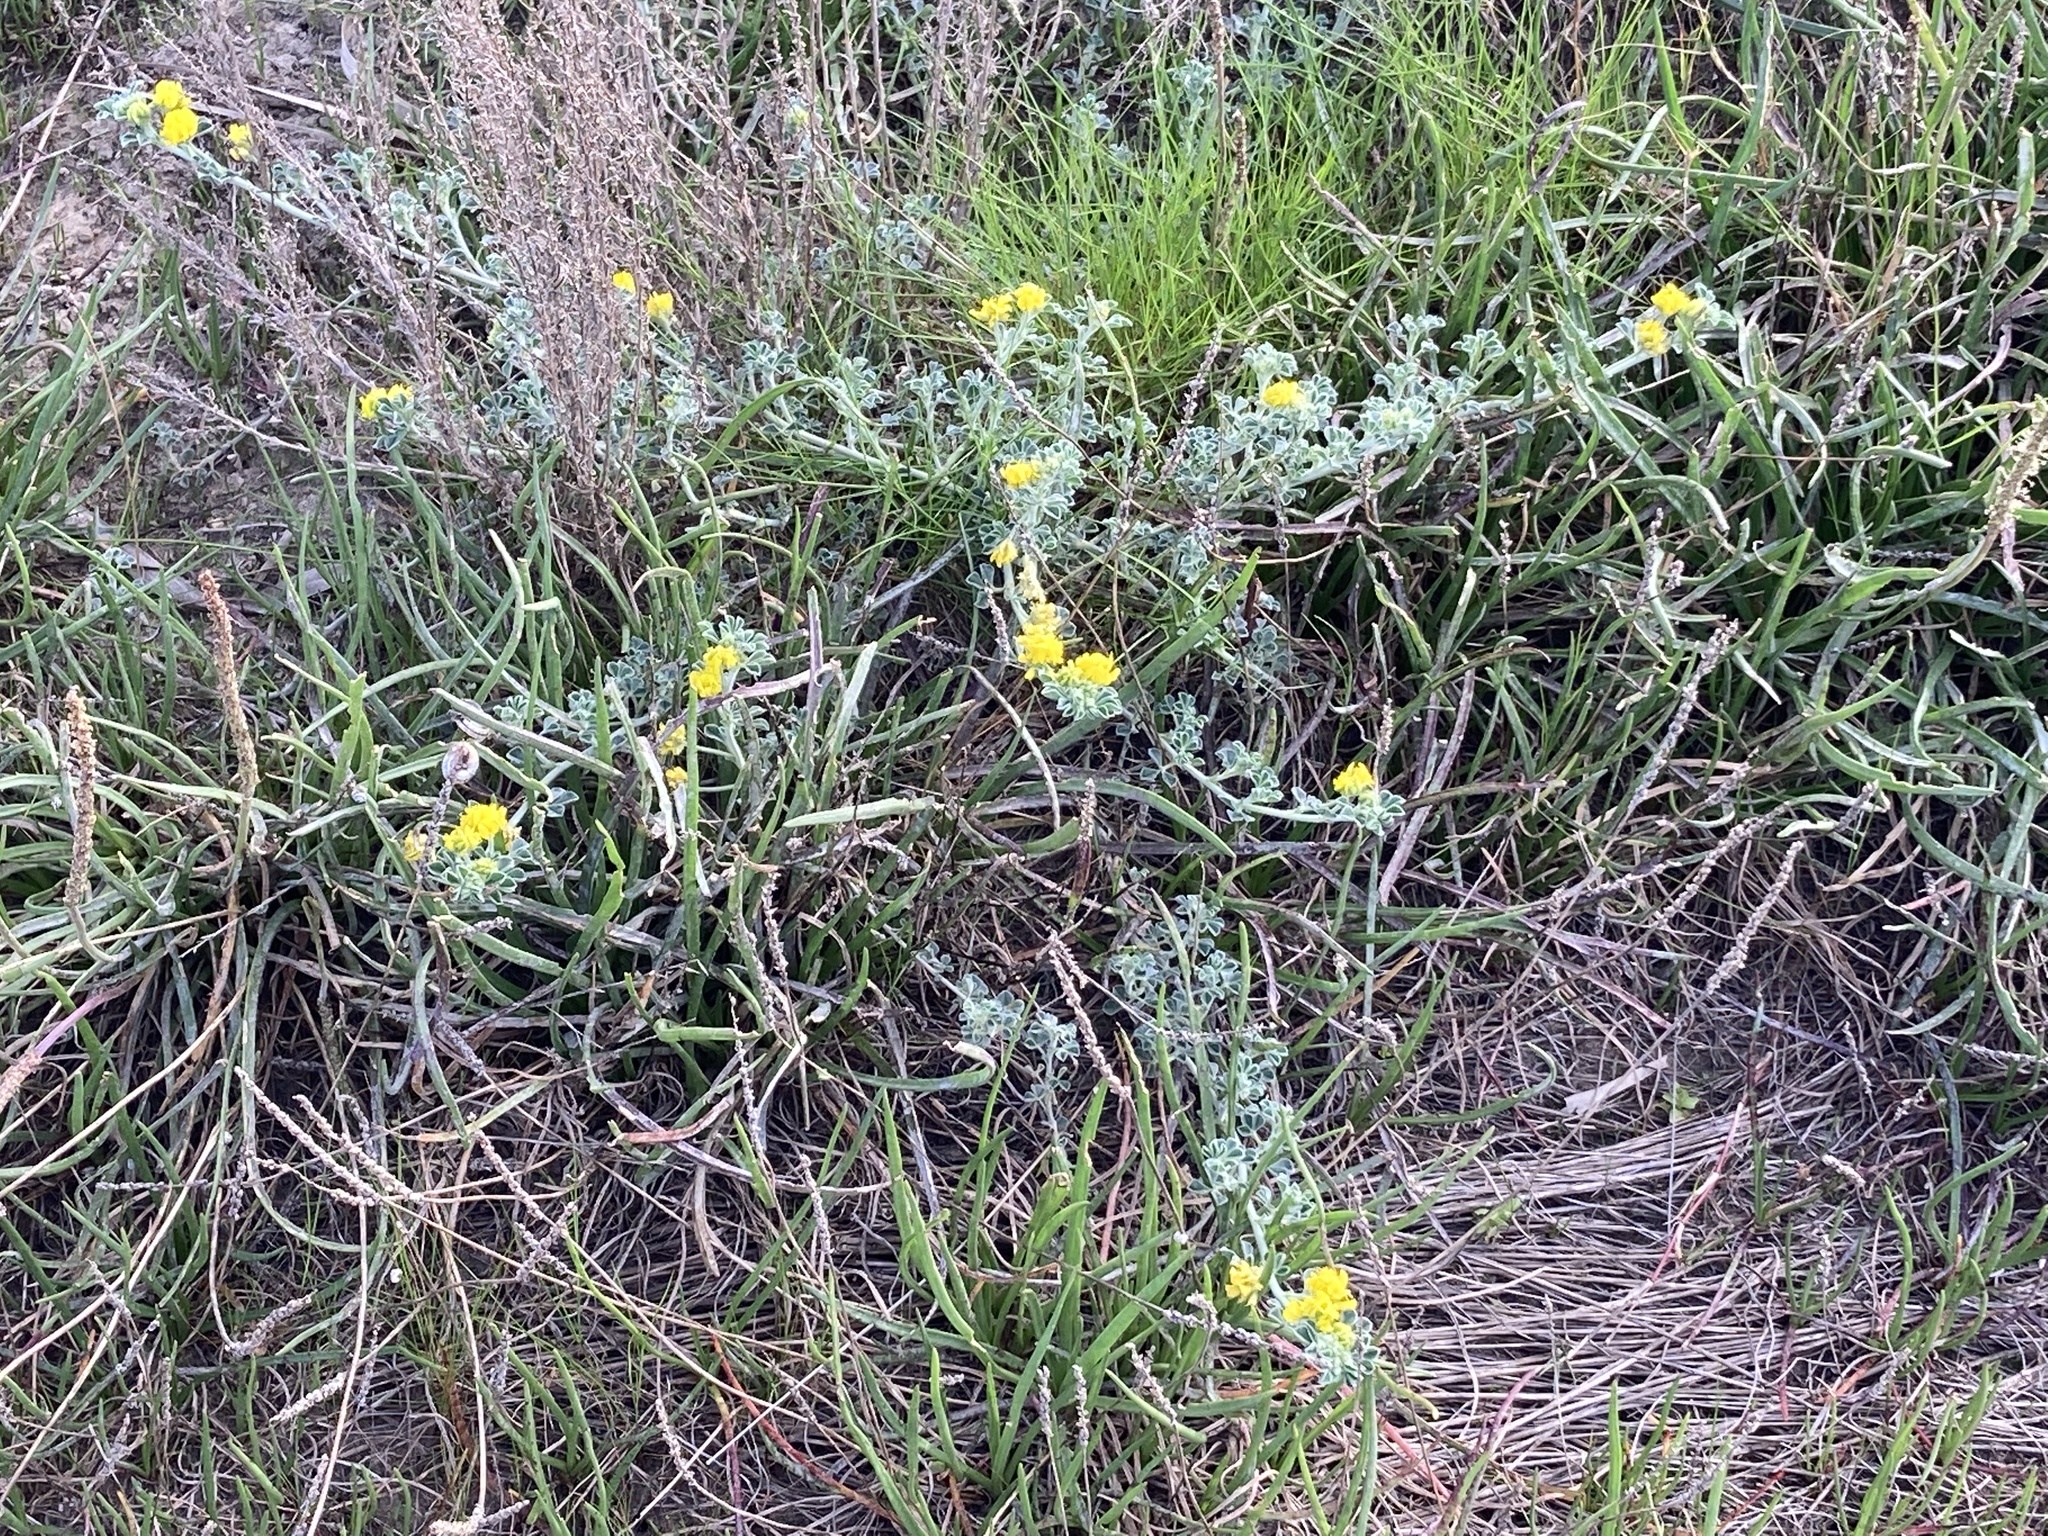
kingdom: Plantae
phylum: Tracheophyta
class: Magnoliopsida
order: Fabales
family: Fabaceae
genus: Medicago
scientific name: Medicago marina
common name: Sea medick
